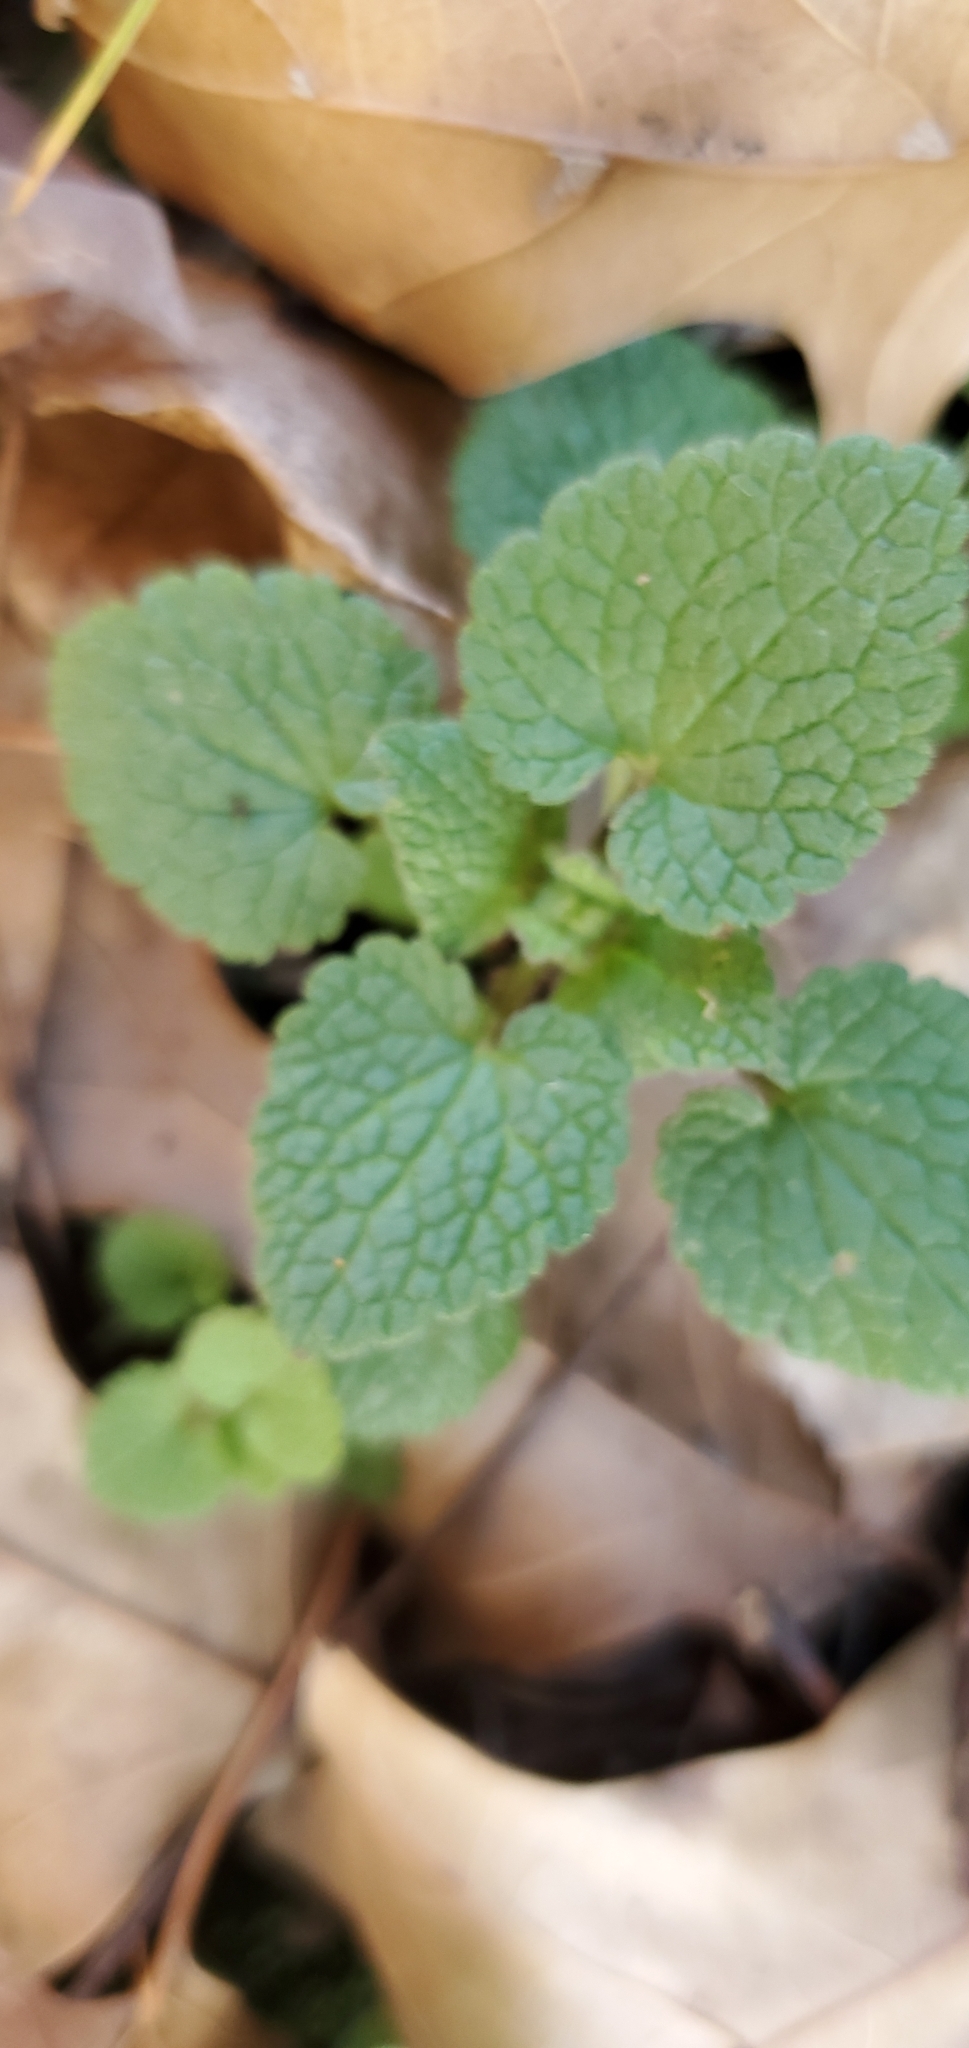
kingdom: Plantae
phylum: Tracheophyta
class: Magnoliopsida
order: Lamiales
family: Lamiaceae
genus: Lamium
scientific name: Lamium purpureum
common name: Red dead-nettle
